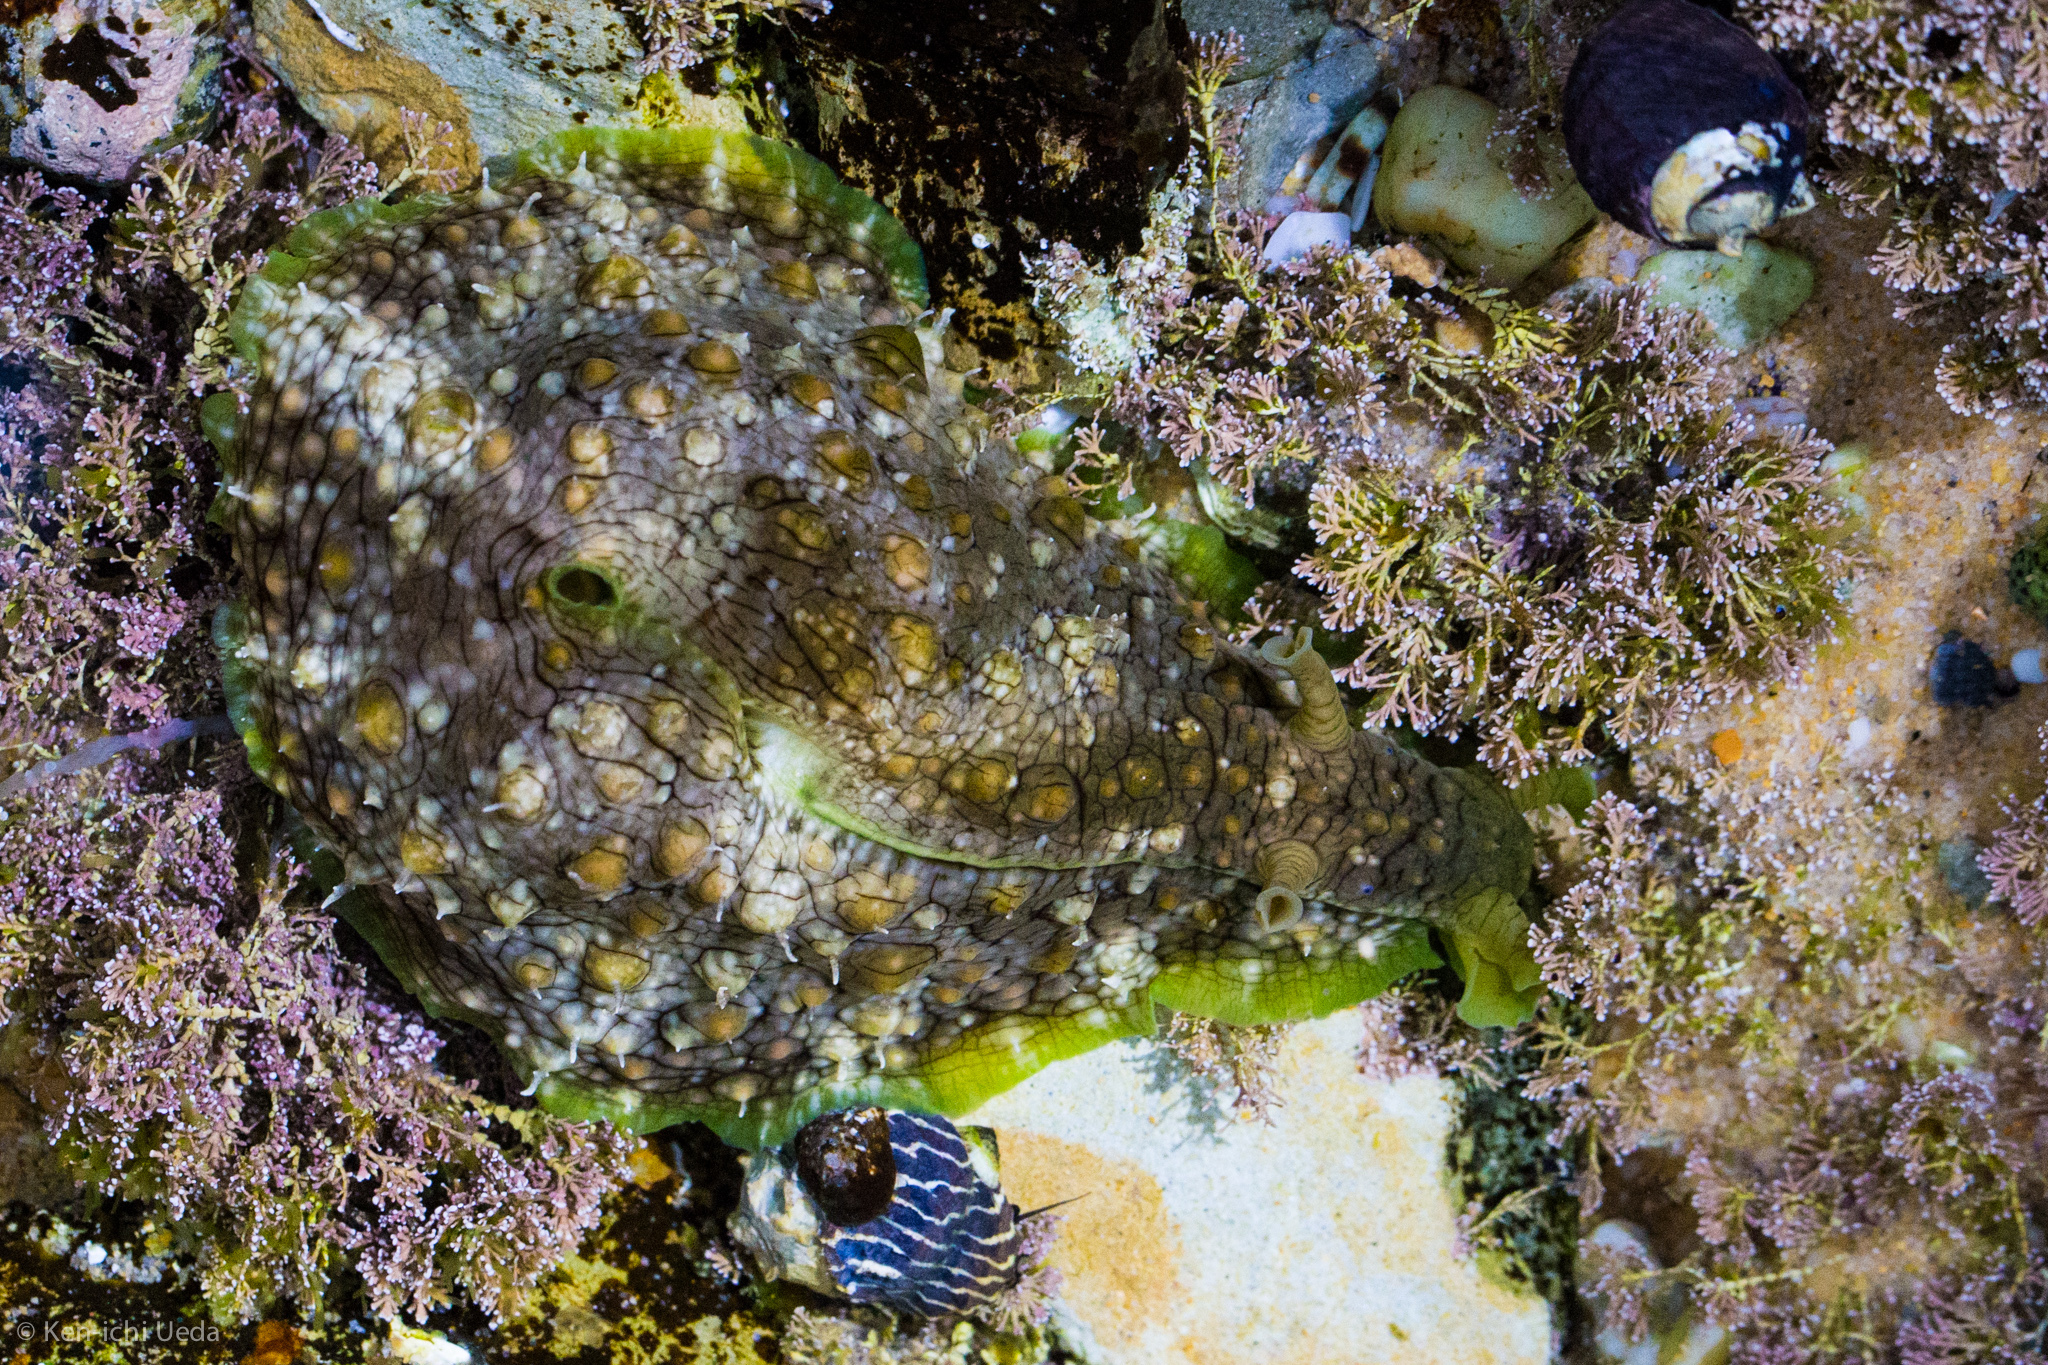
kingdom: Animalia
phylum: Mollusca
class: Gastropoda
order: Aplysiida
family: Aplysiidae
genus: Dolabrifera
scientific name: Dolabrifera brazieri
